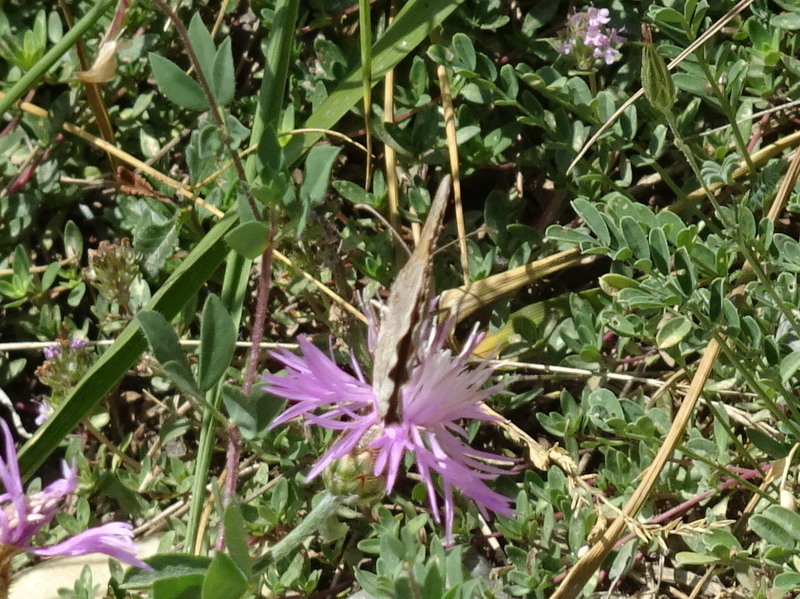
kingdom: Animalia
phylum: Arthropoda
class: Insecta
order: Lepidoptera
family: Nymphalidae
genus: Satyrus
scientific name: Satyrus ferula
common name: Great sooty satyr
